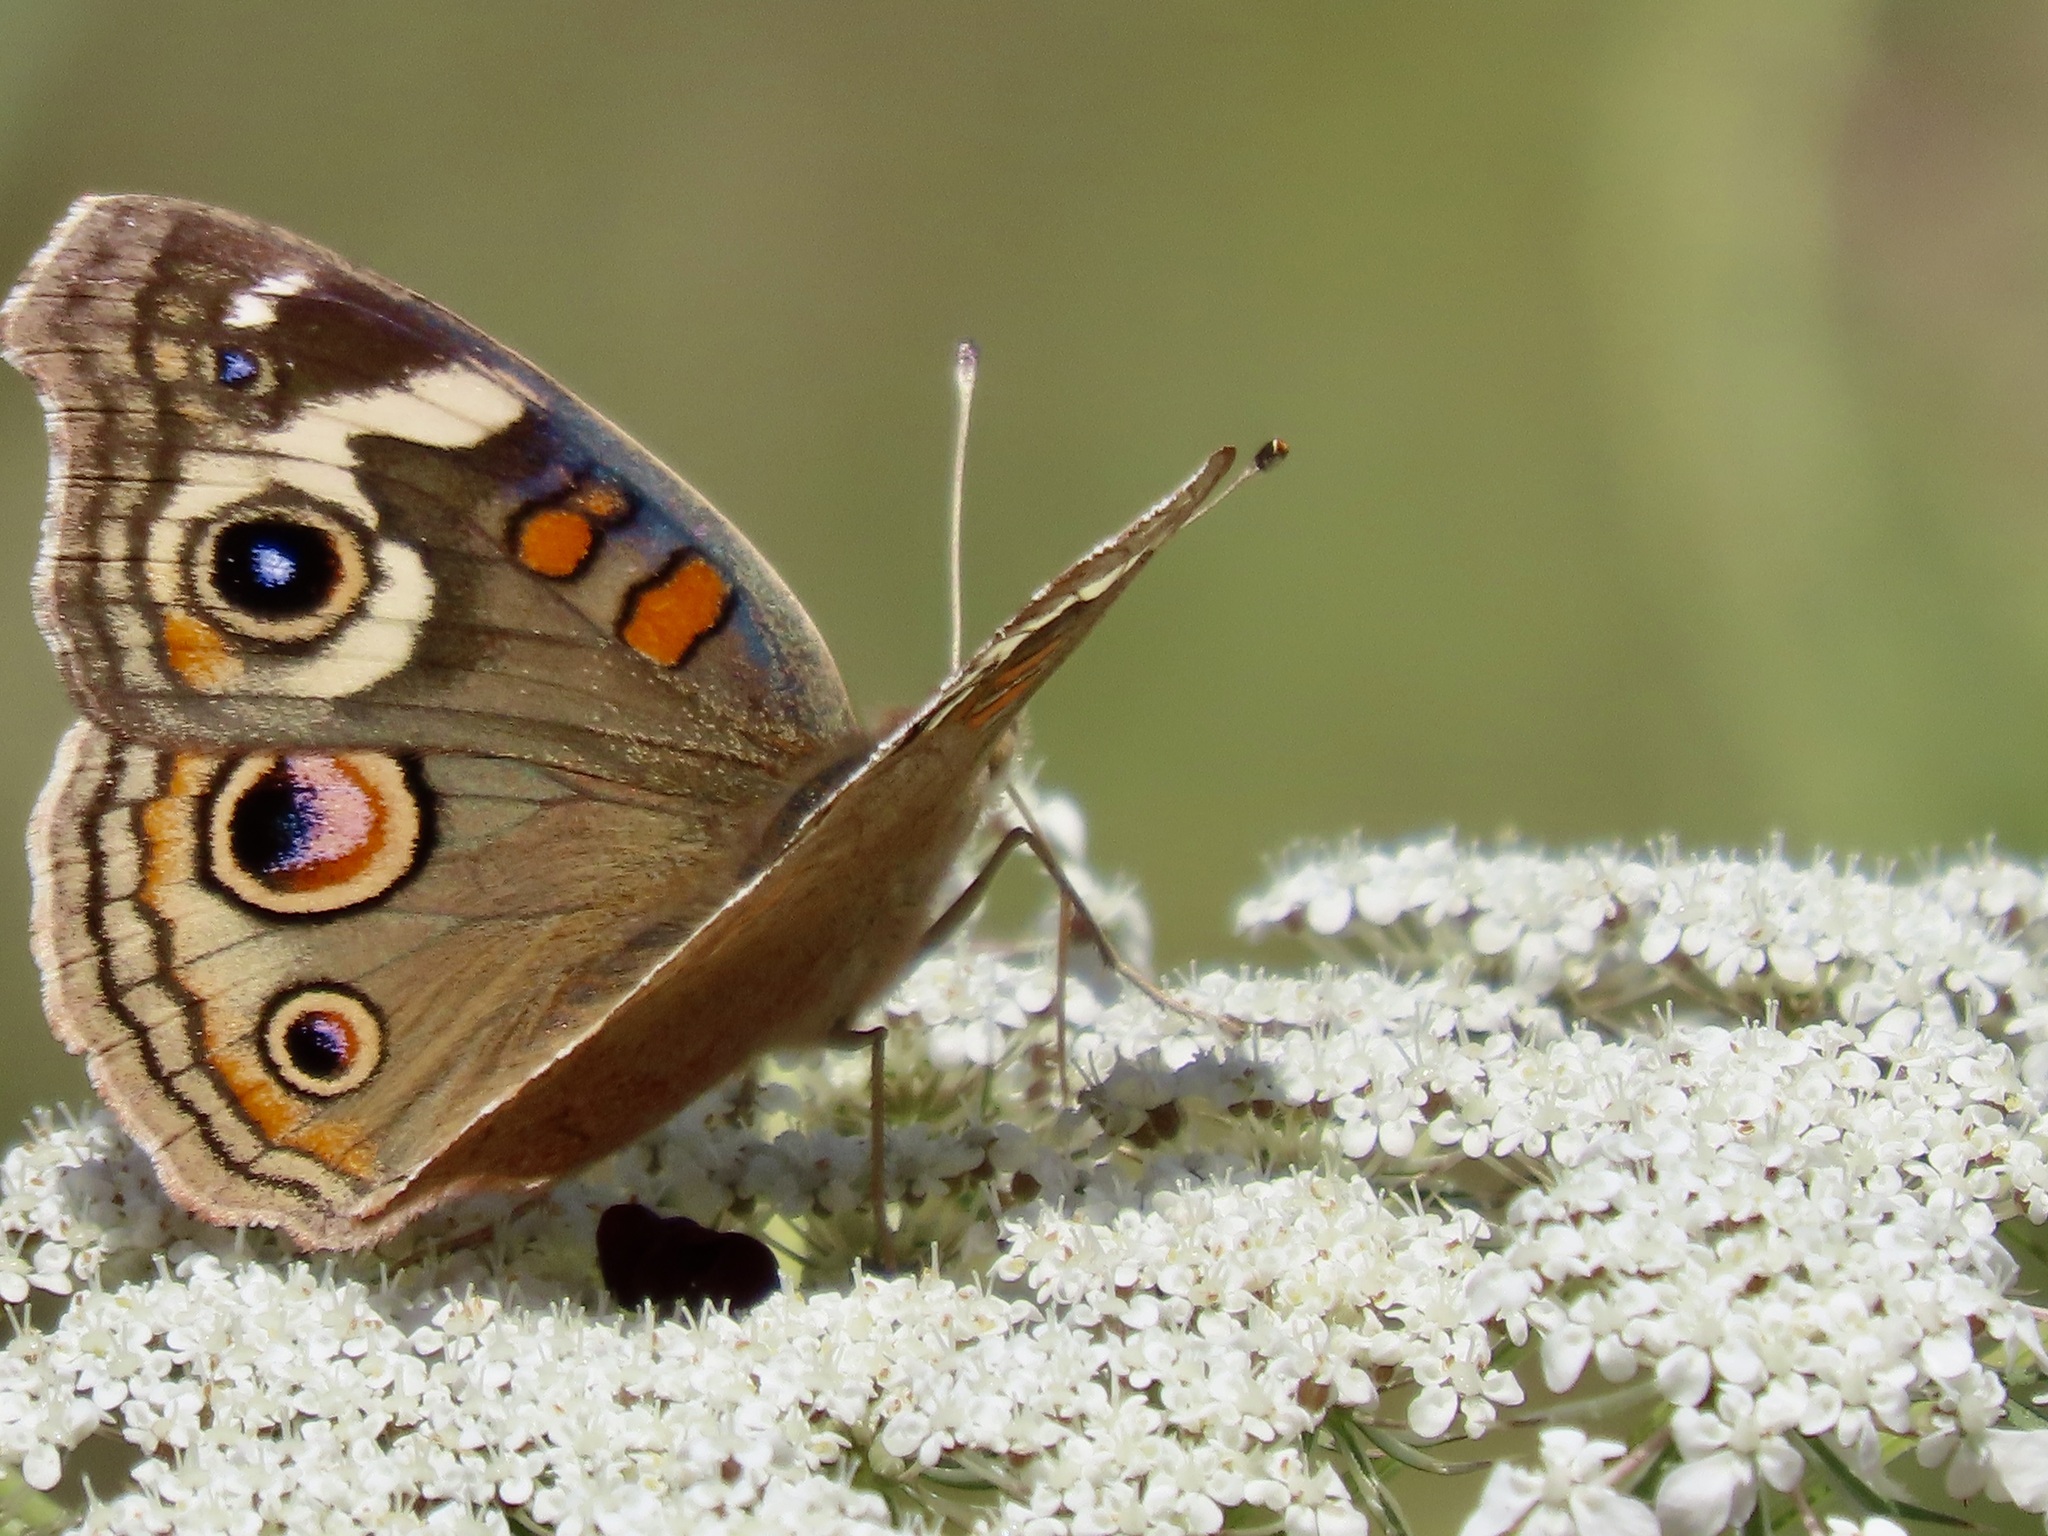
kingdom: Animalia
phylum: Arthropoda
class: Insecta
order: Lepidoptera
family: Nymphalidae
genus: Junonia
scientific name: Junonia grisea
